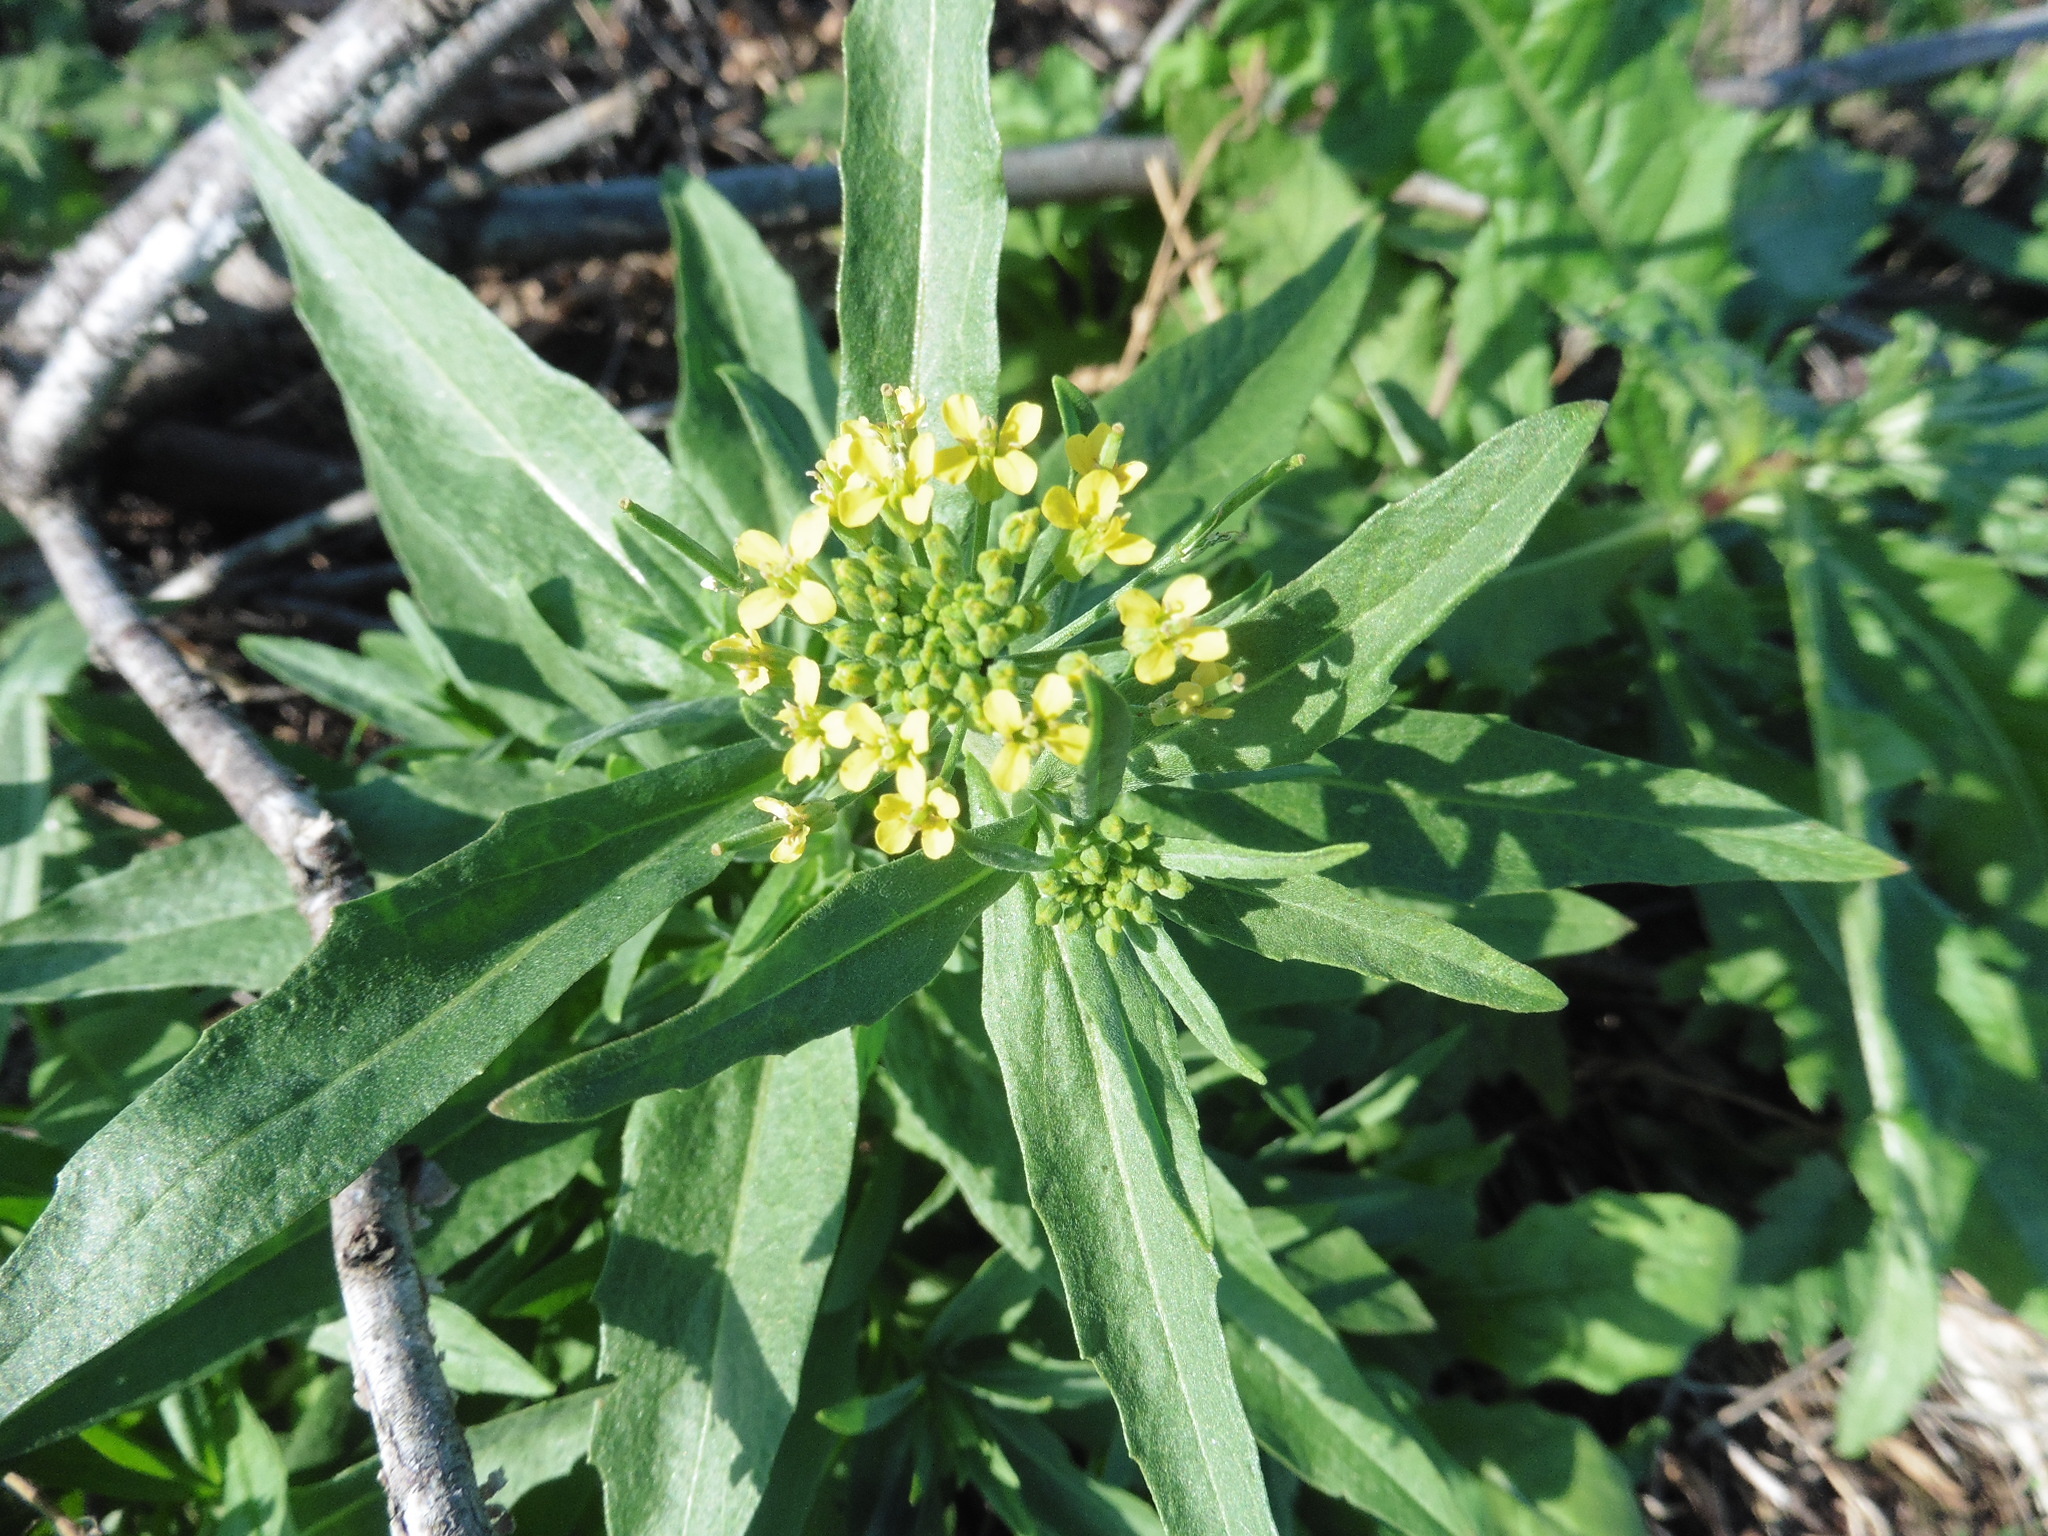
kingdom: Plantae
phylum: Tracheophyta
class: Magnoliopsida
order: Brassicales
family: Brassicaceae
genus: Erysimum
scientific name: Erysimum cheiranthoides
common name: Treacle mustard
